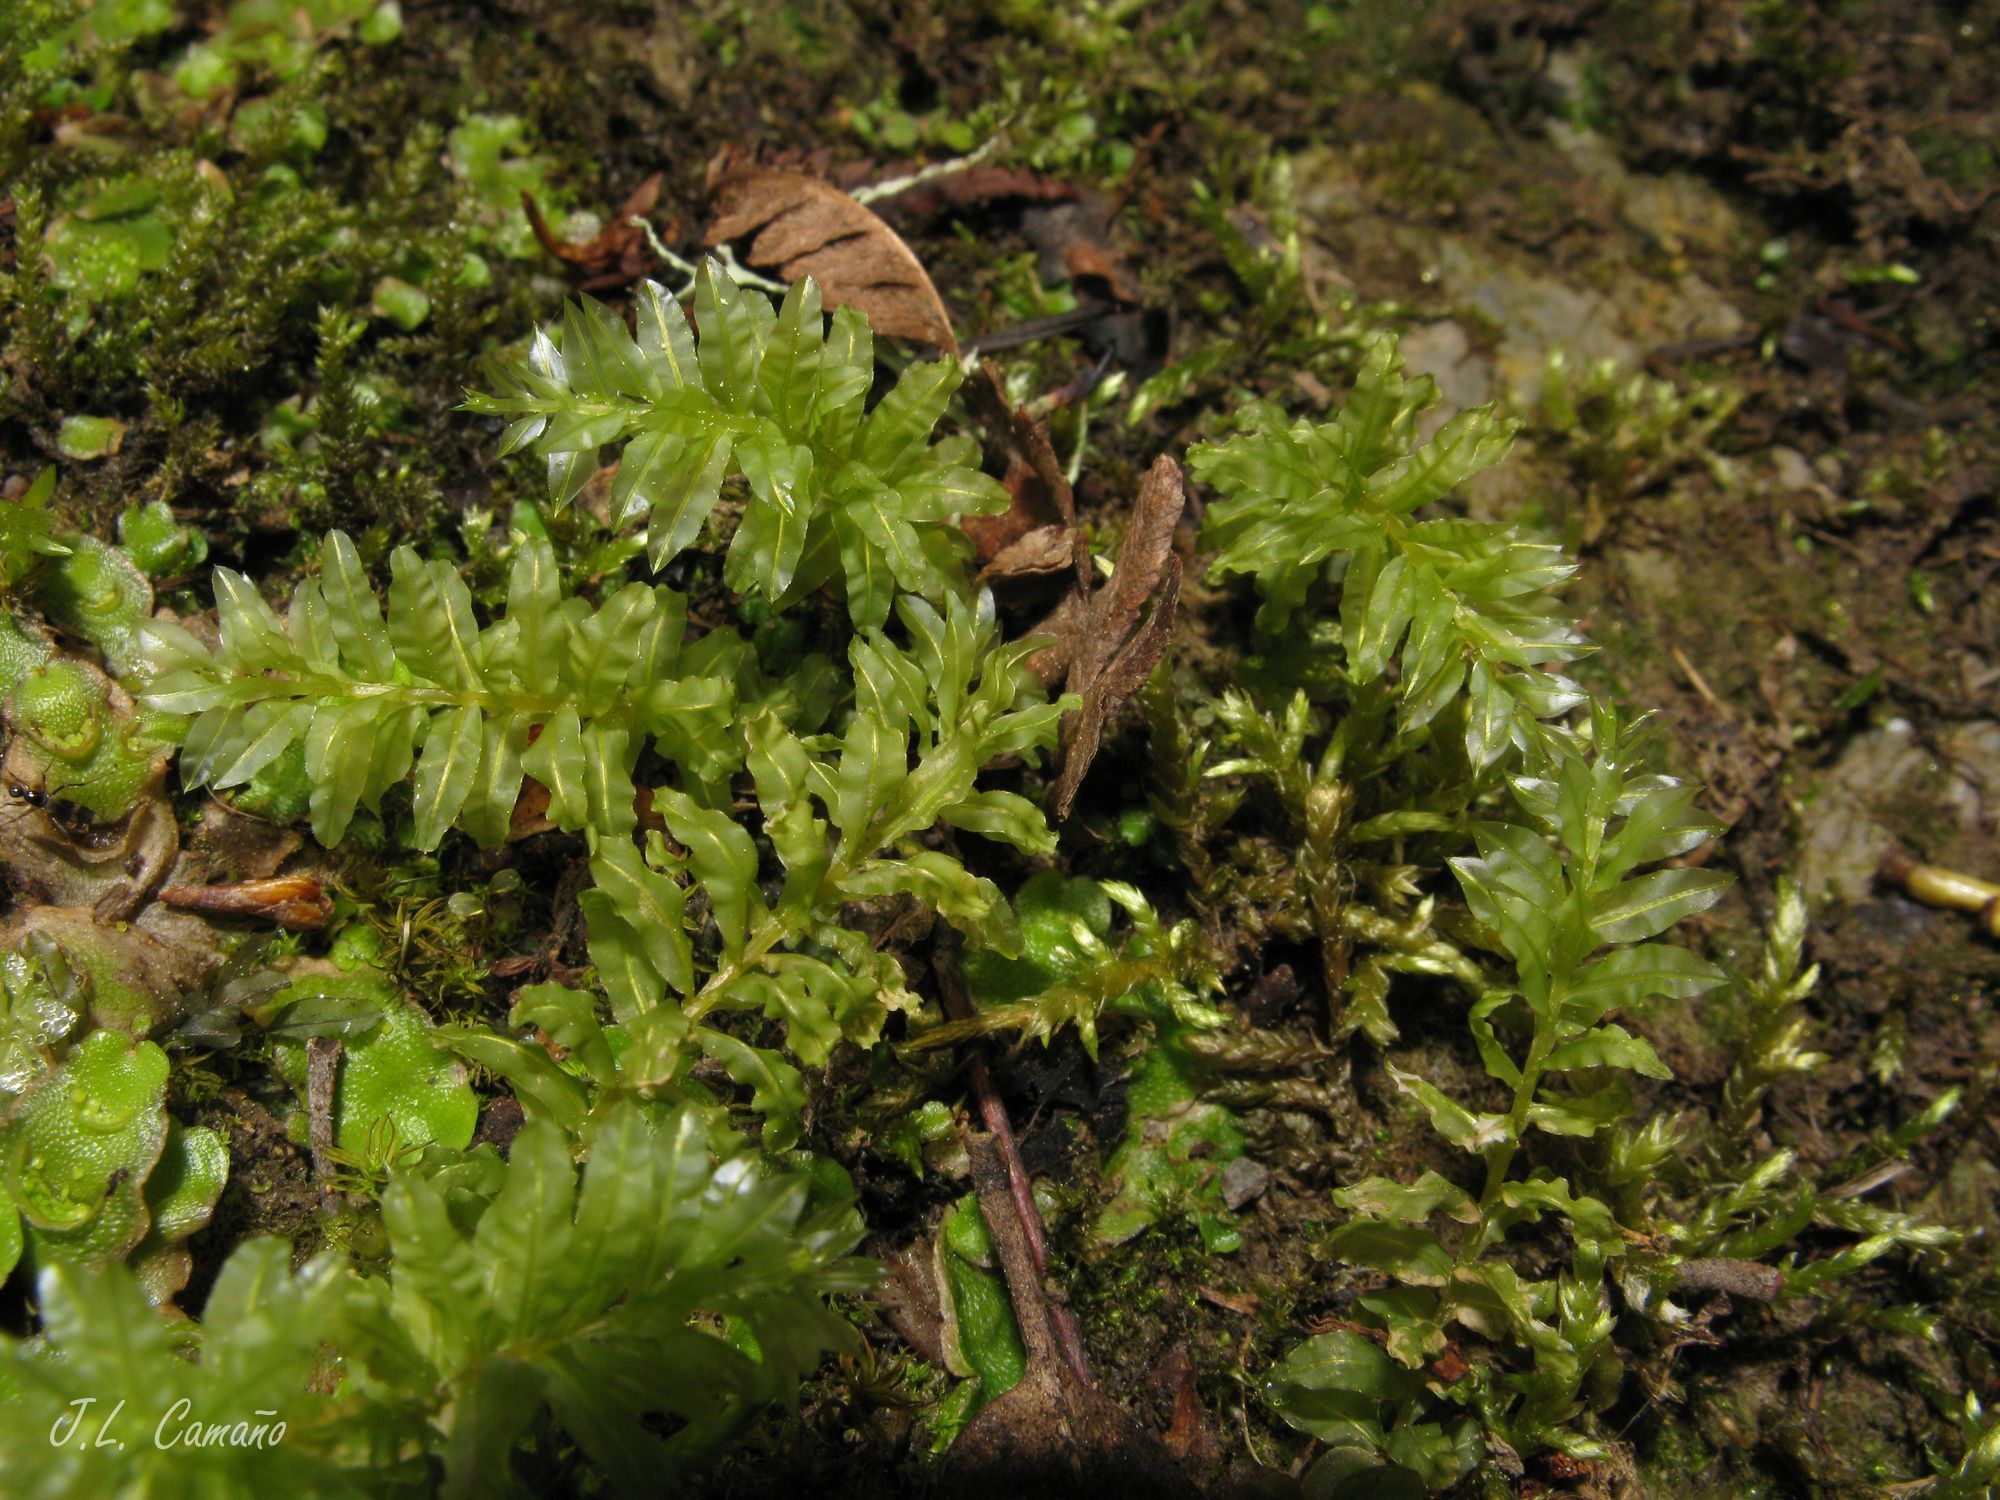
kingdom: Plantae
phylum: Bryophyta
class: Bryopsida
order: Bryales
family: Mniaceae
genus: Plagiomnium
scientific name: Plagiomnium undulatum
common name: Hart's-tongue thyme-moss
